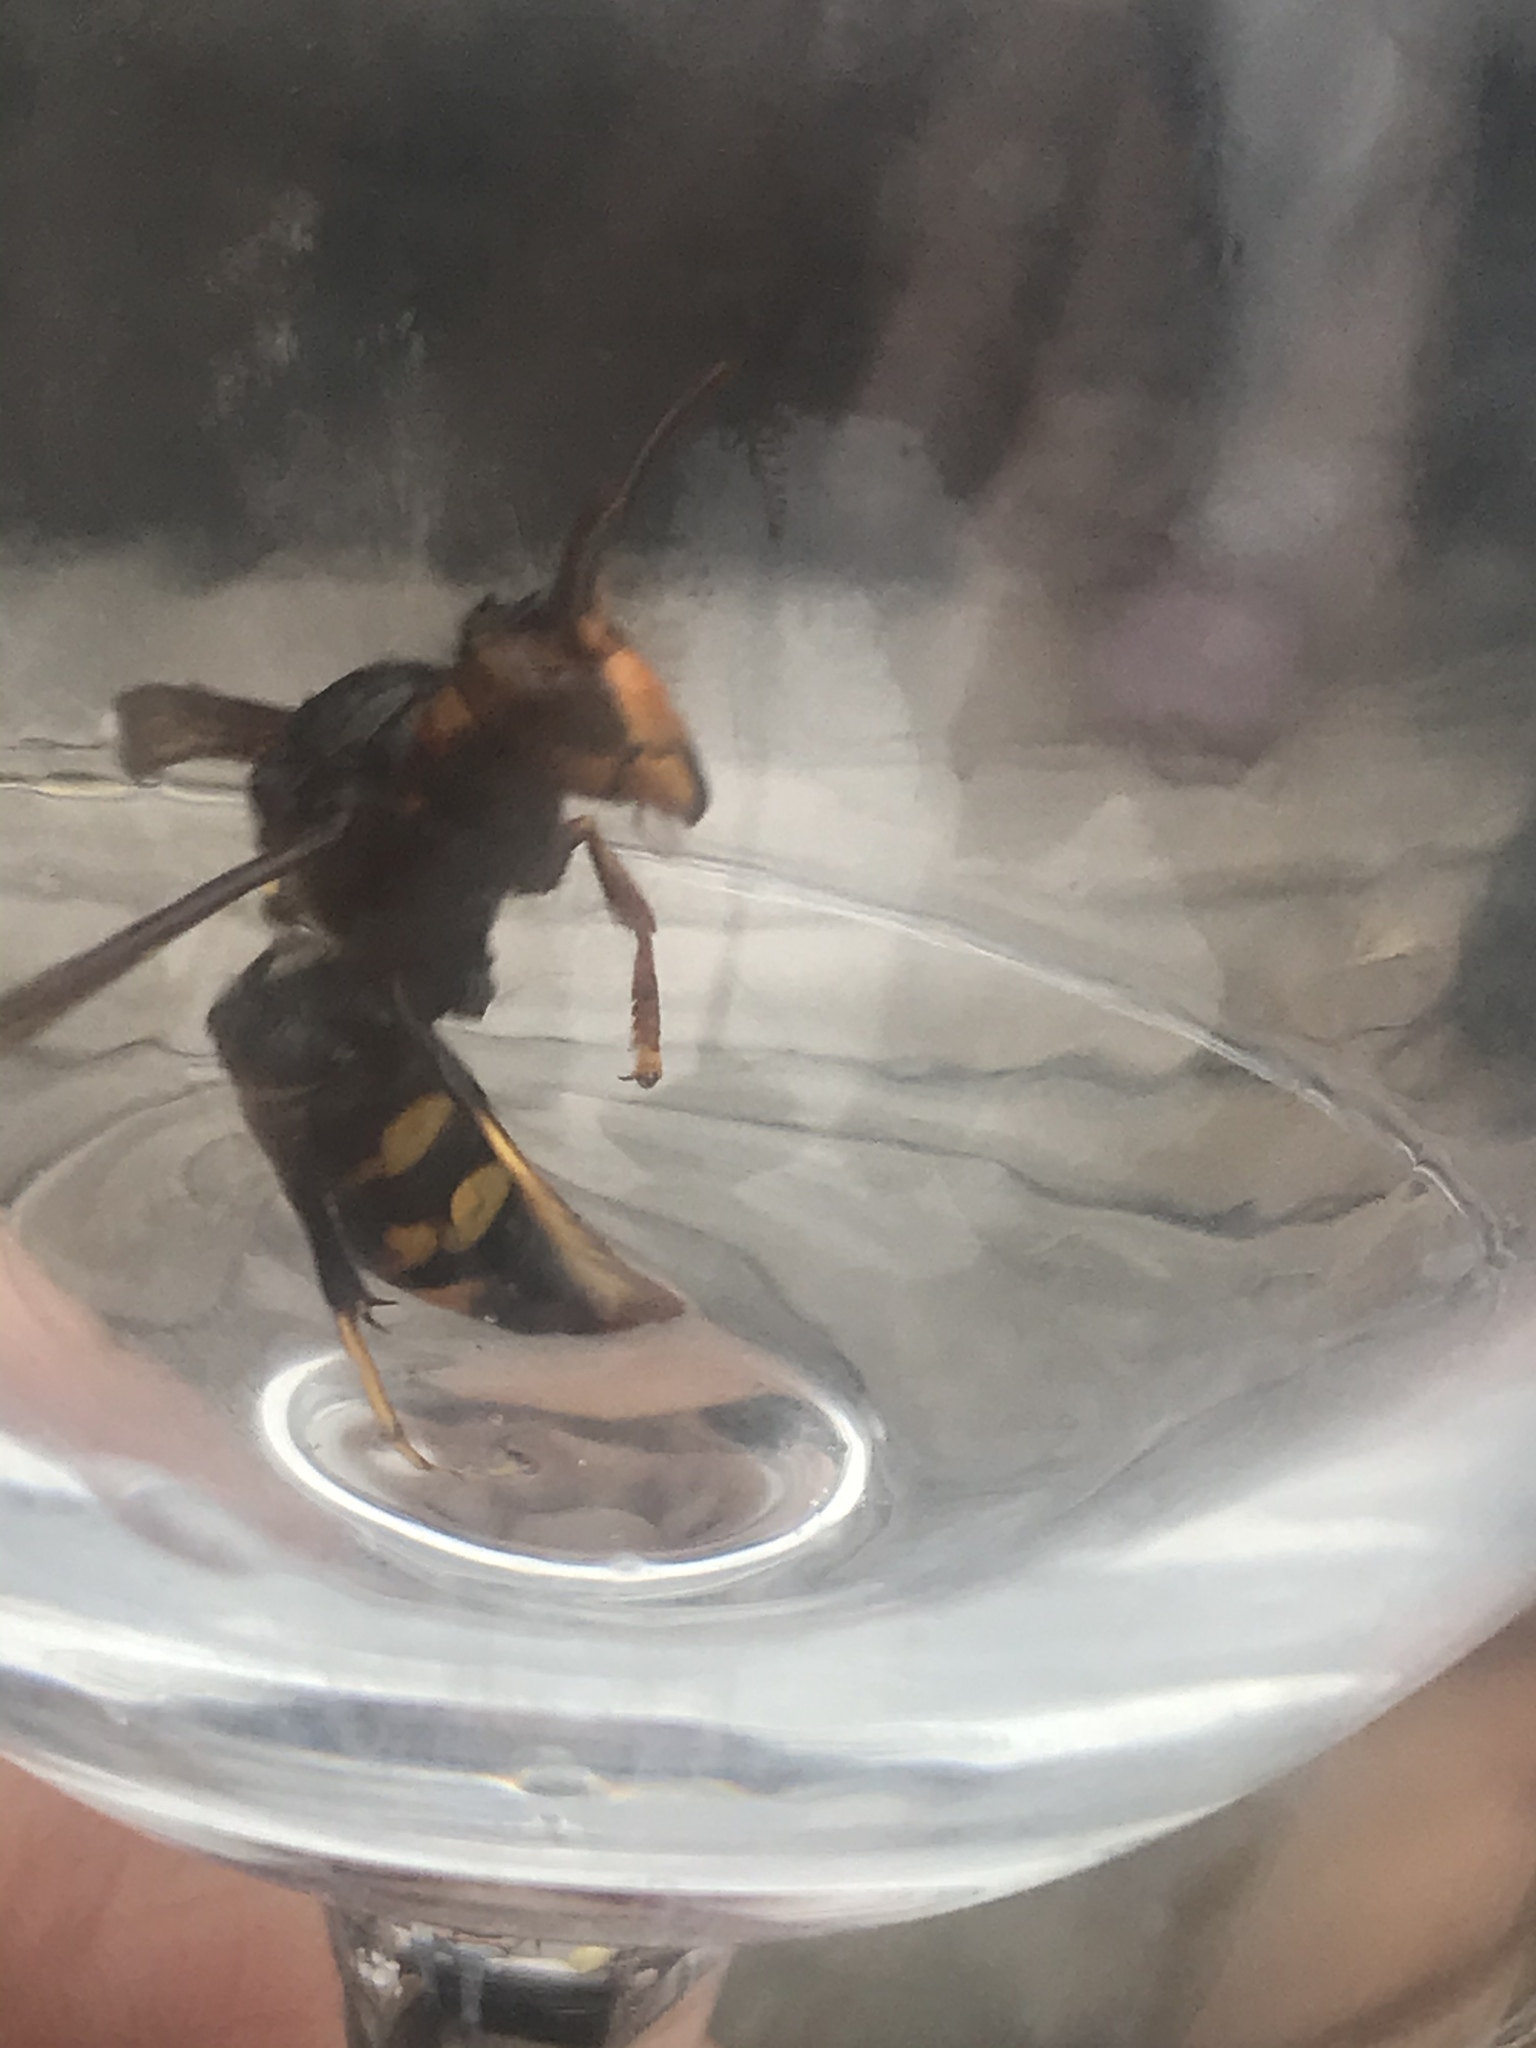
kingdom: Animalia
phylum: Arthropoda
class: Insecta
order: Hymenoptera
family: Vespidae
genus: Vespa
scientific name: Vespa velutina
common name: Asian hornet
